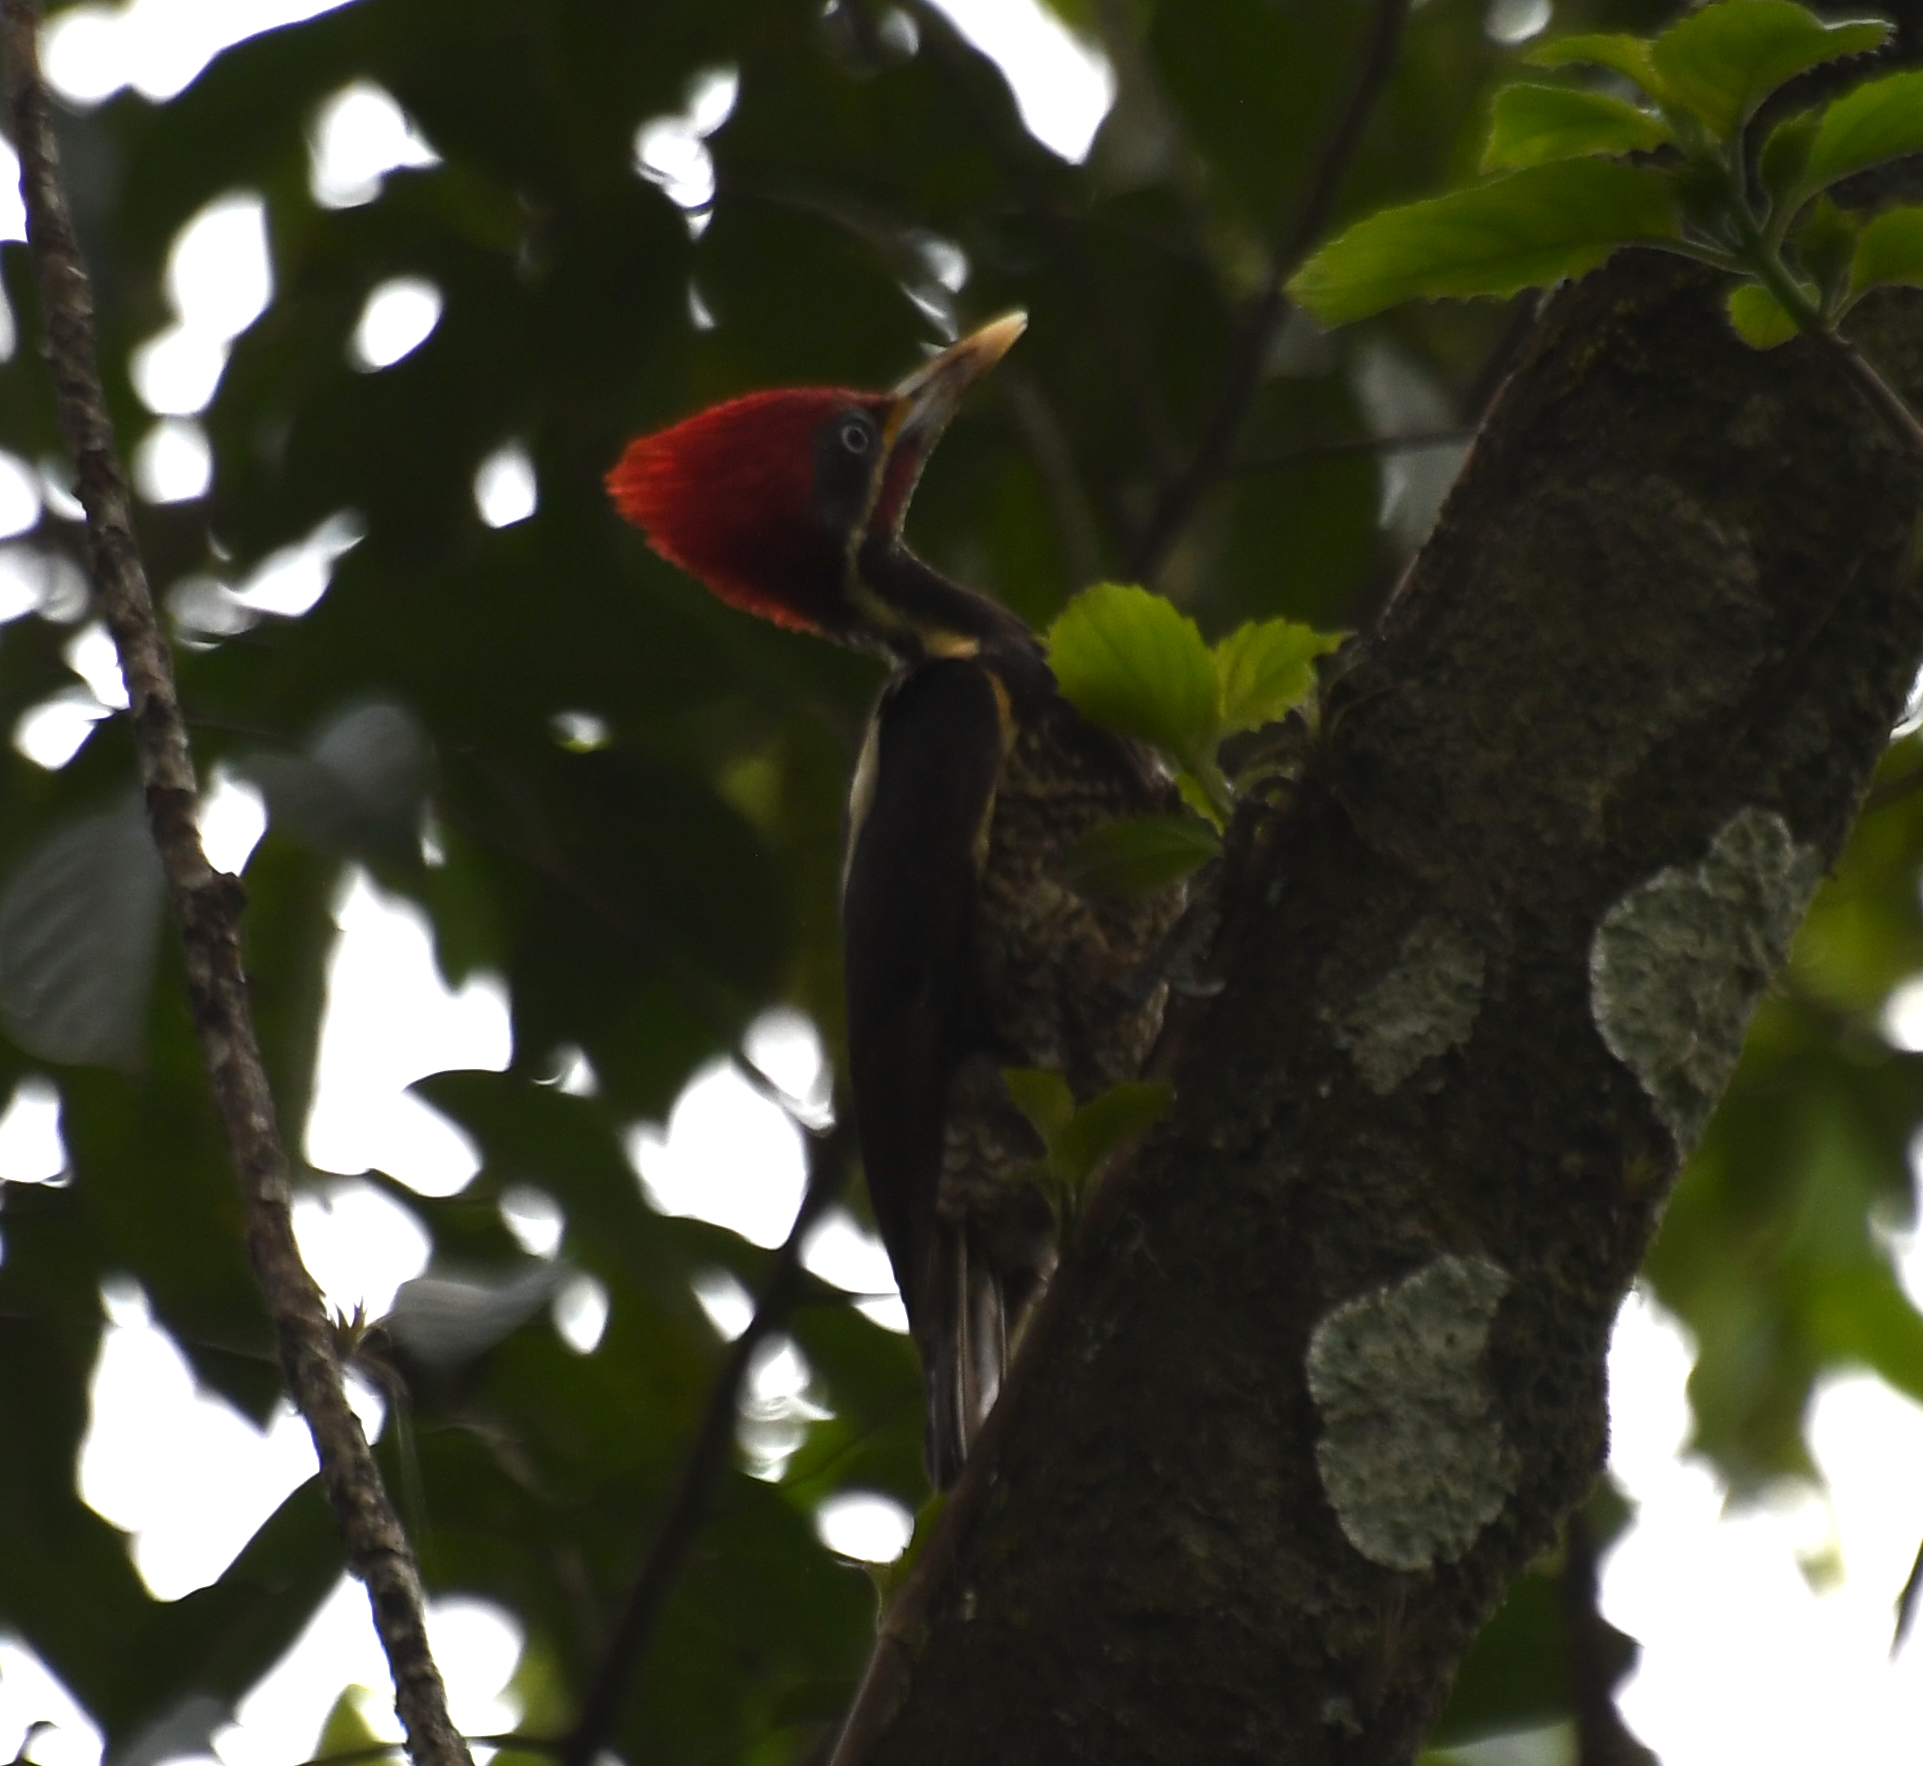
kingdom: Animalia
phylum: Chordata
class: Aves
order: Piciformes
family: Picidae
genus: Dryocopus
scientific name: Dryocopus lineatus
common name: Lineated woodpecker
